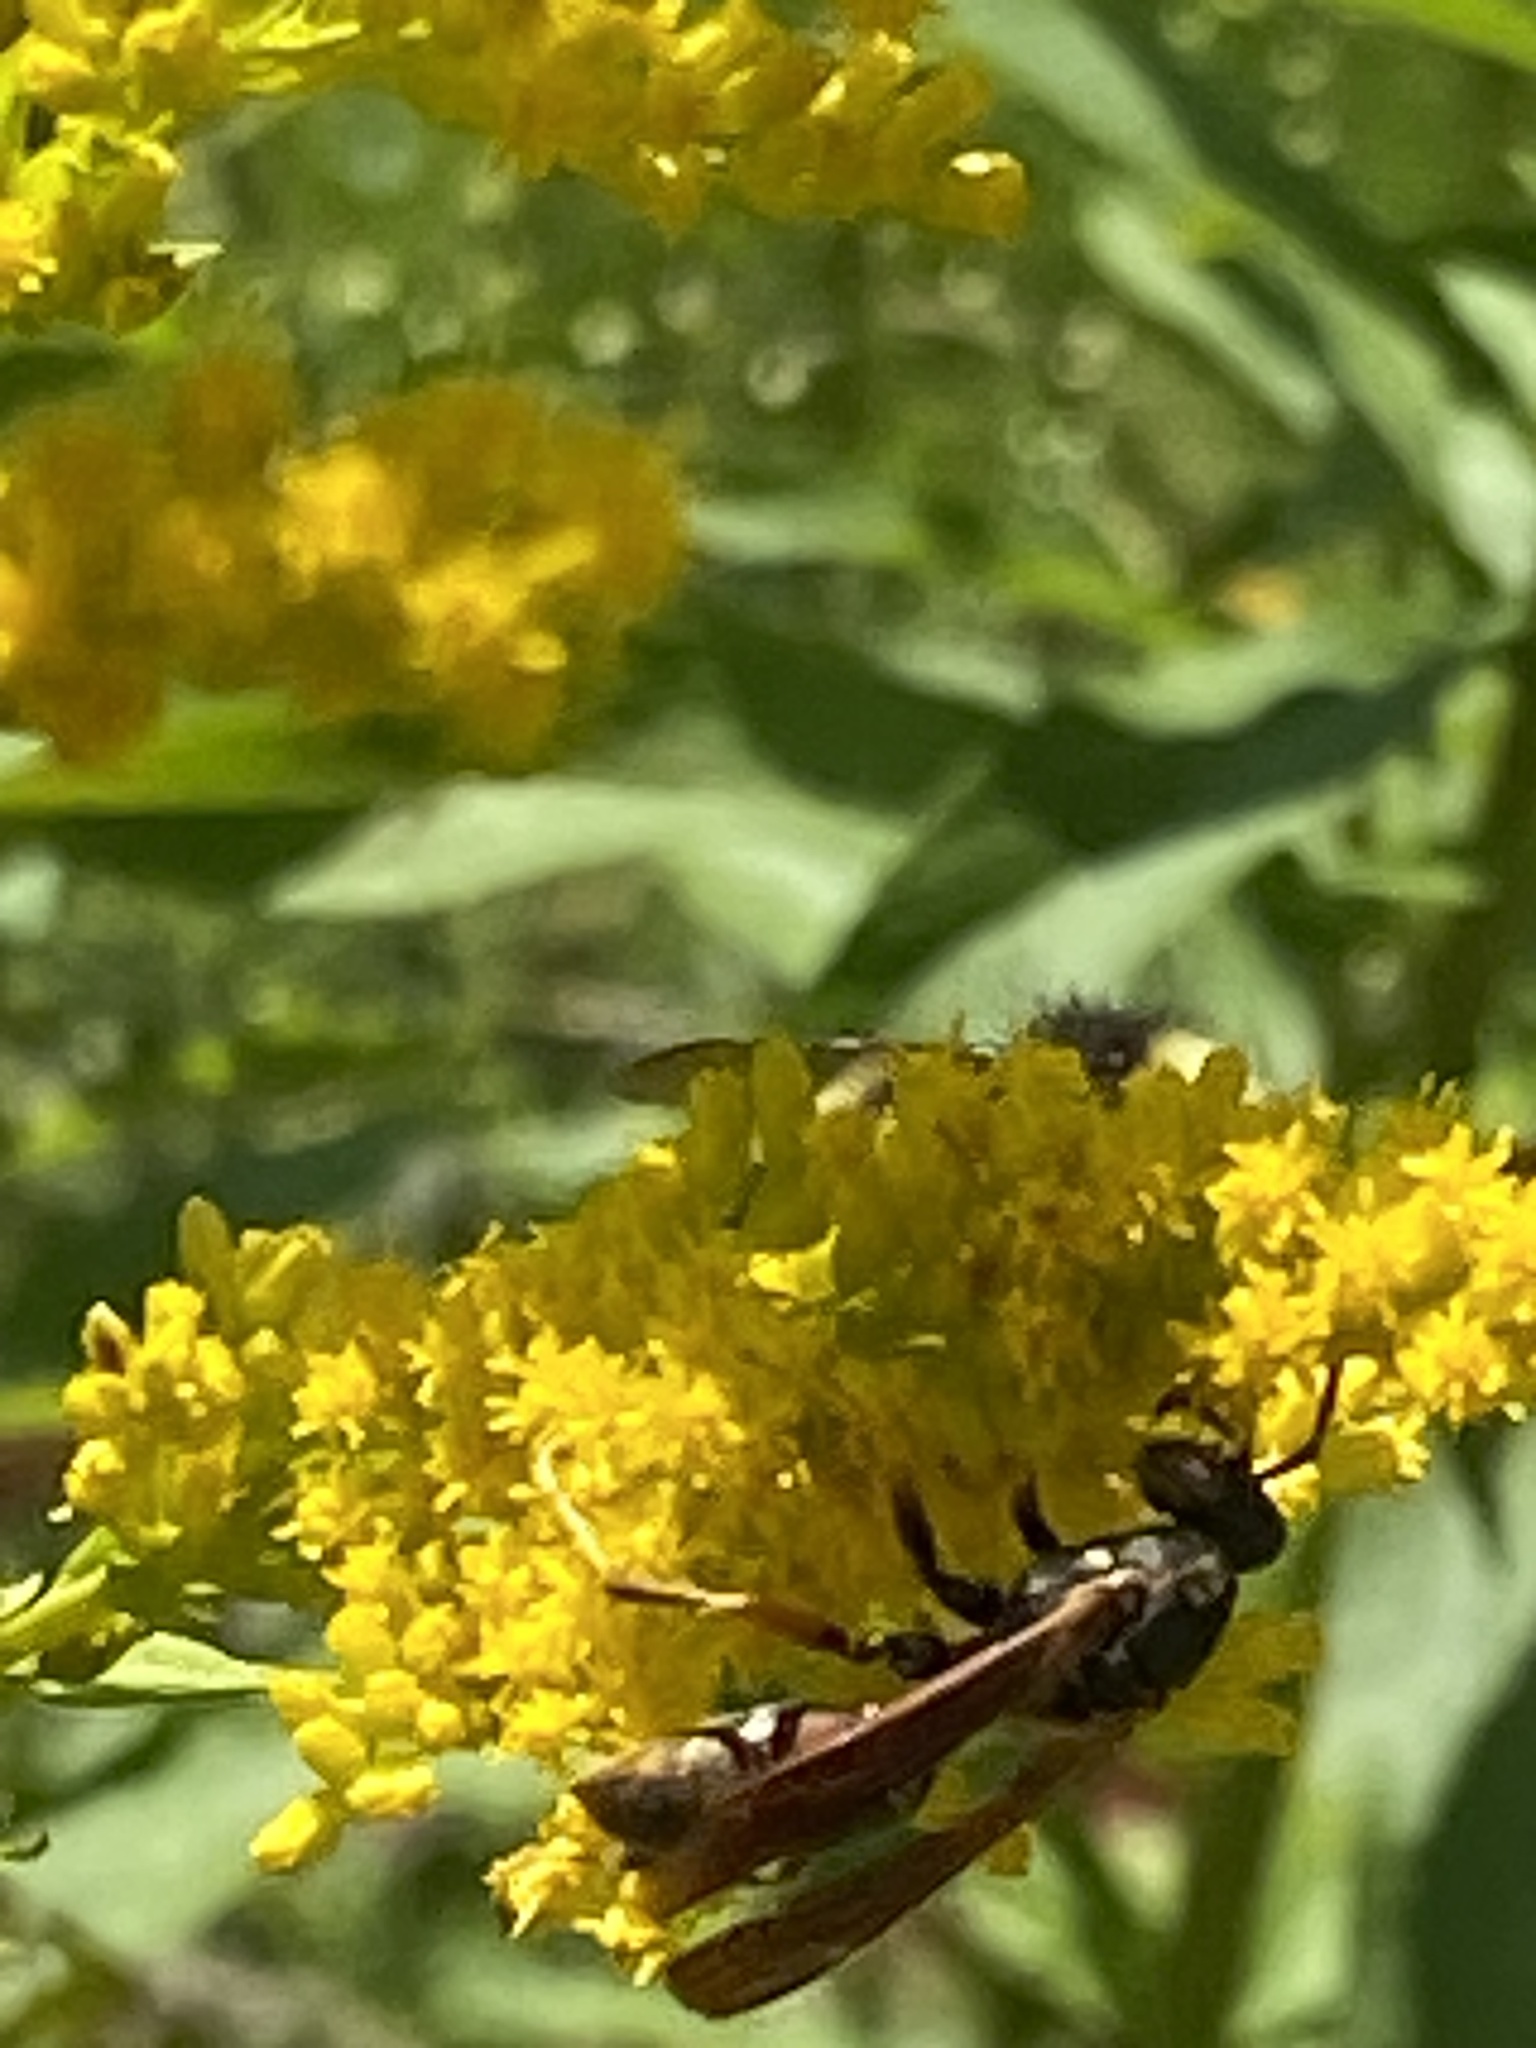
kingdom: Animalia
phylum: Arthropoda
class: Insecta
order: Hymenoptera
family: Eumenidae
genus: Polistes
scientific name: Polistes fuscatus
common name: Dark paper wasp
